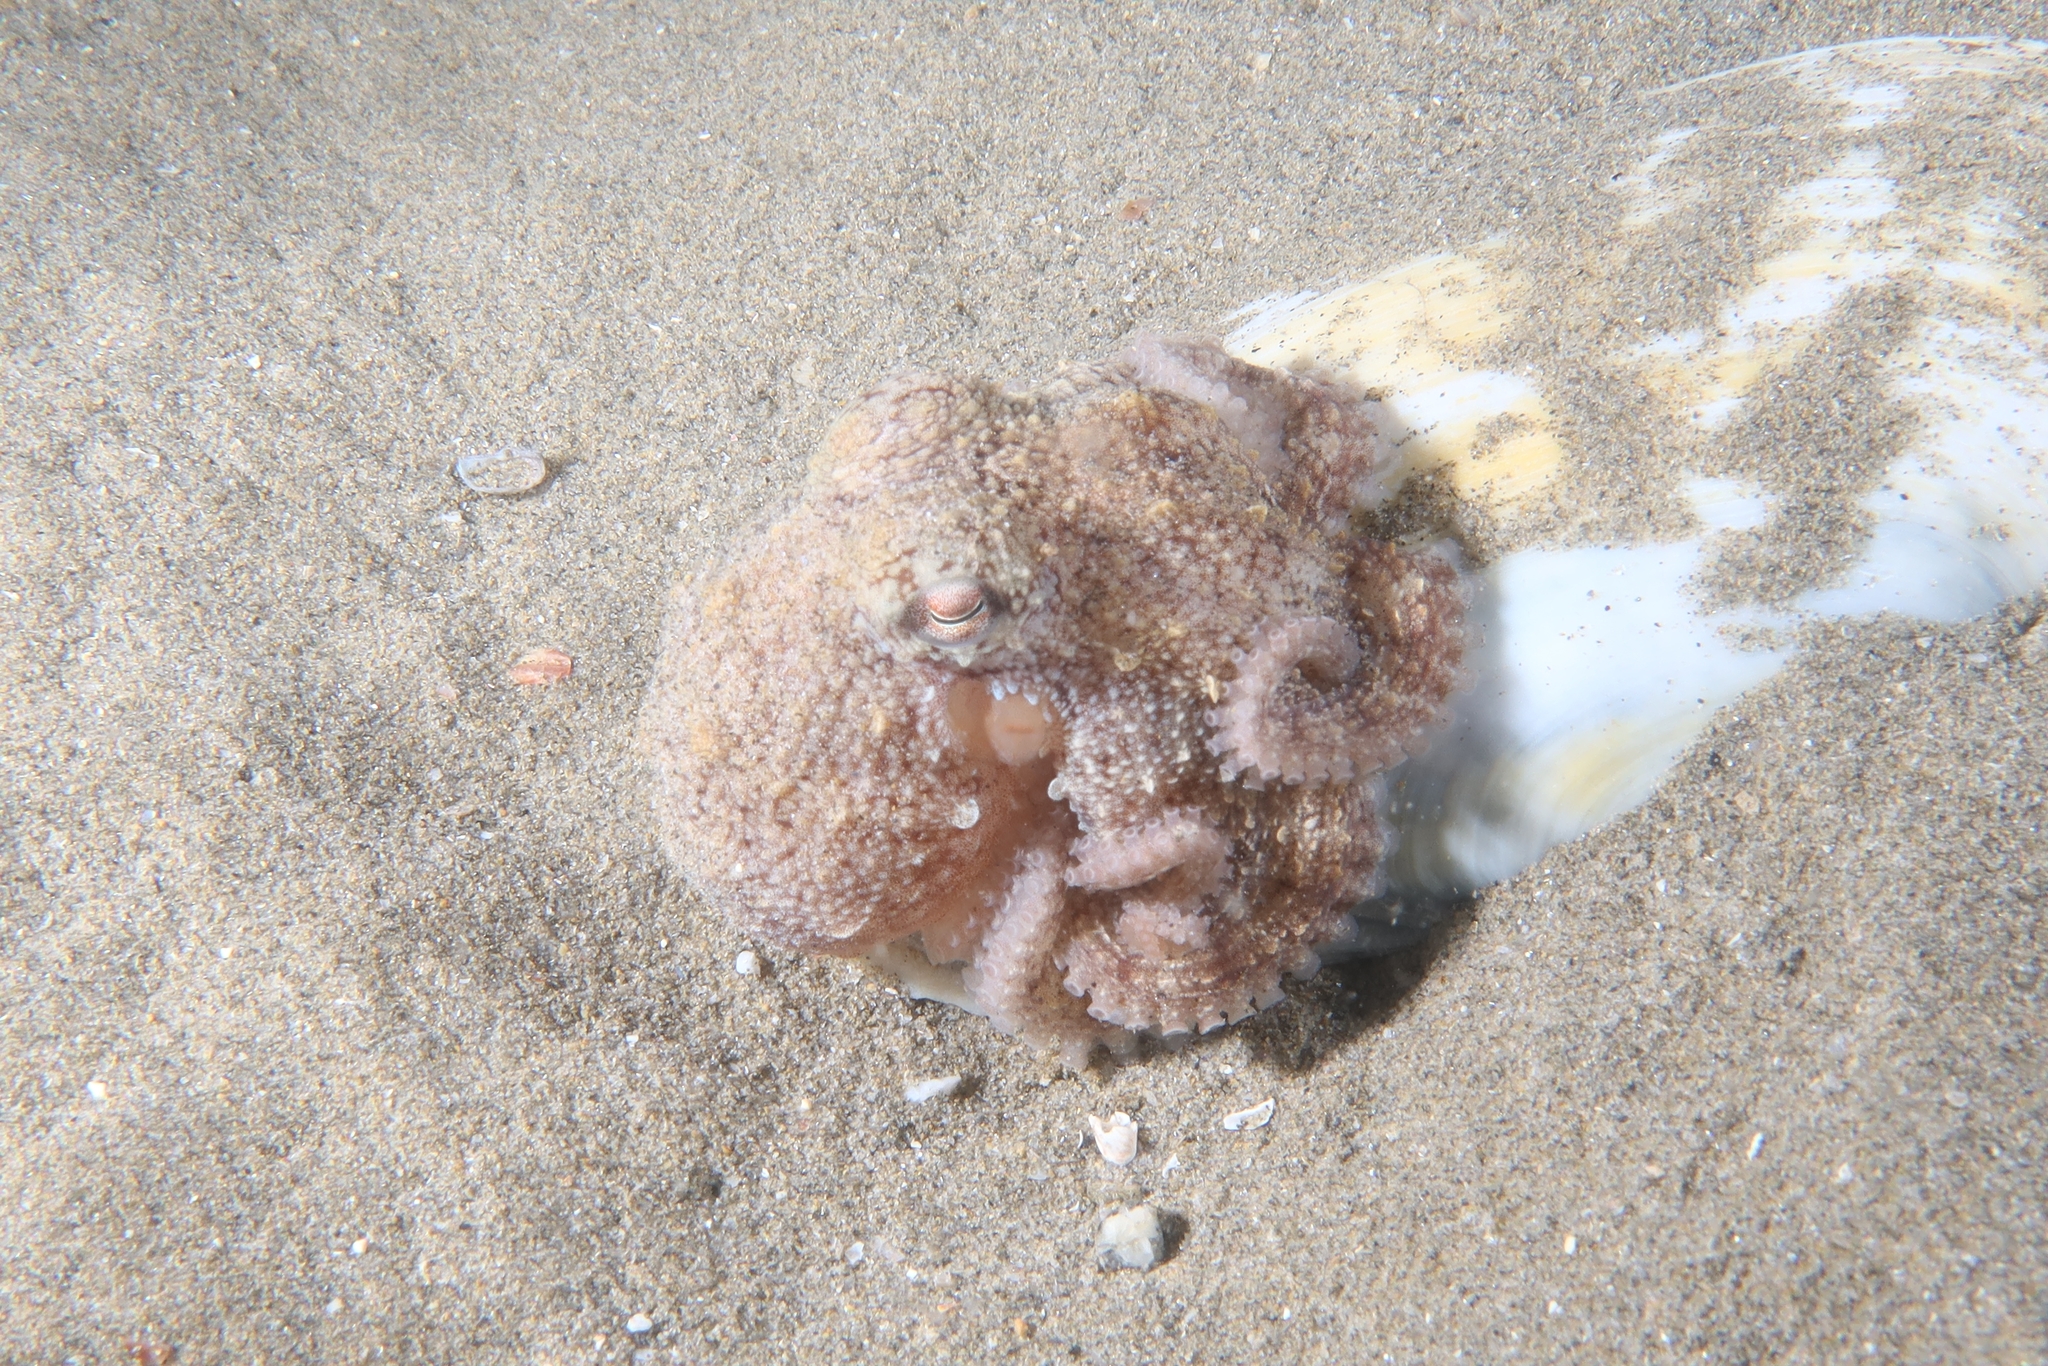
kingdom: Animalia
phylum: Mollusca
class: Cephalopoda
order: Octopoda
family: Octopodidae
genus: Octopus
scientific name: Octopus vulgaris
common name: Common octopus
